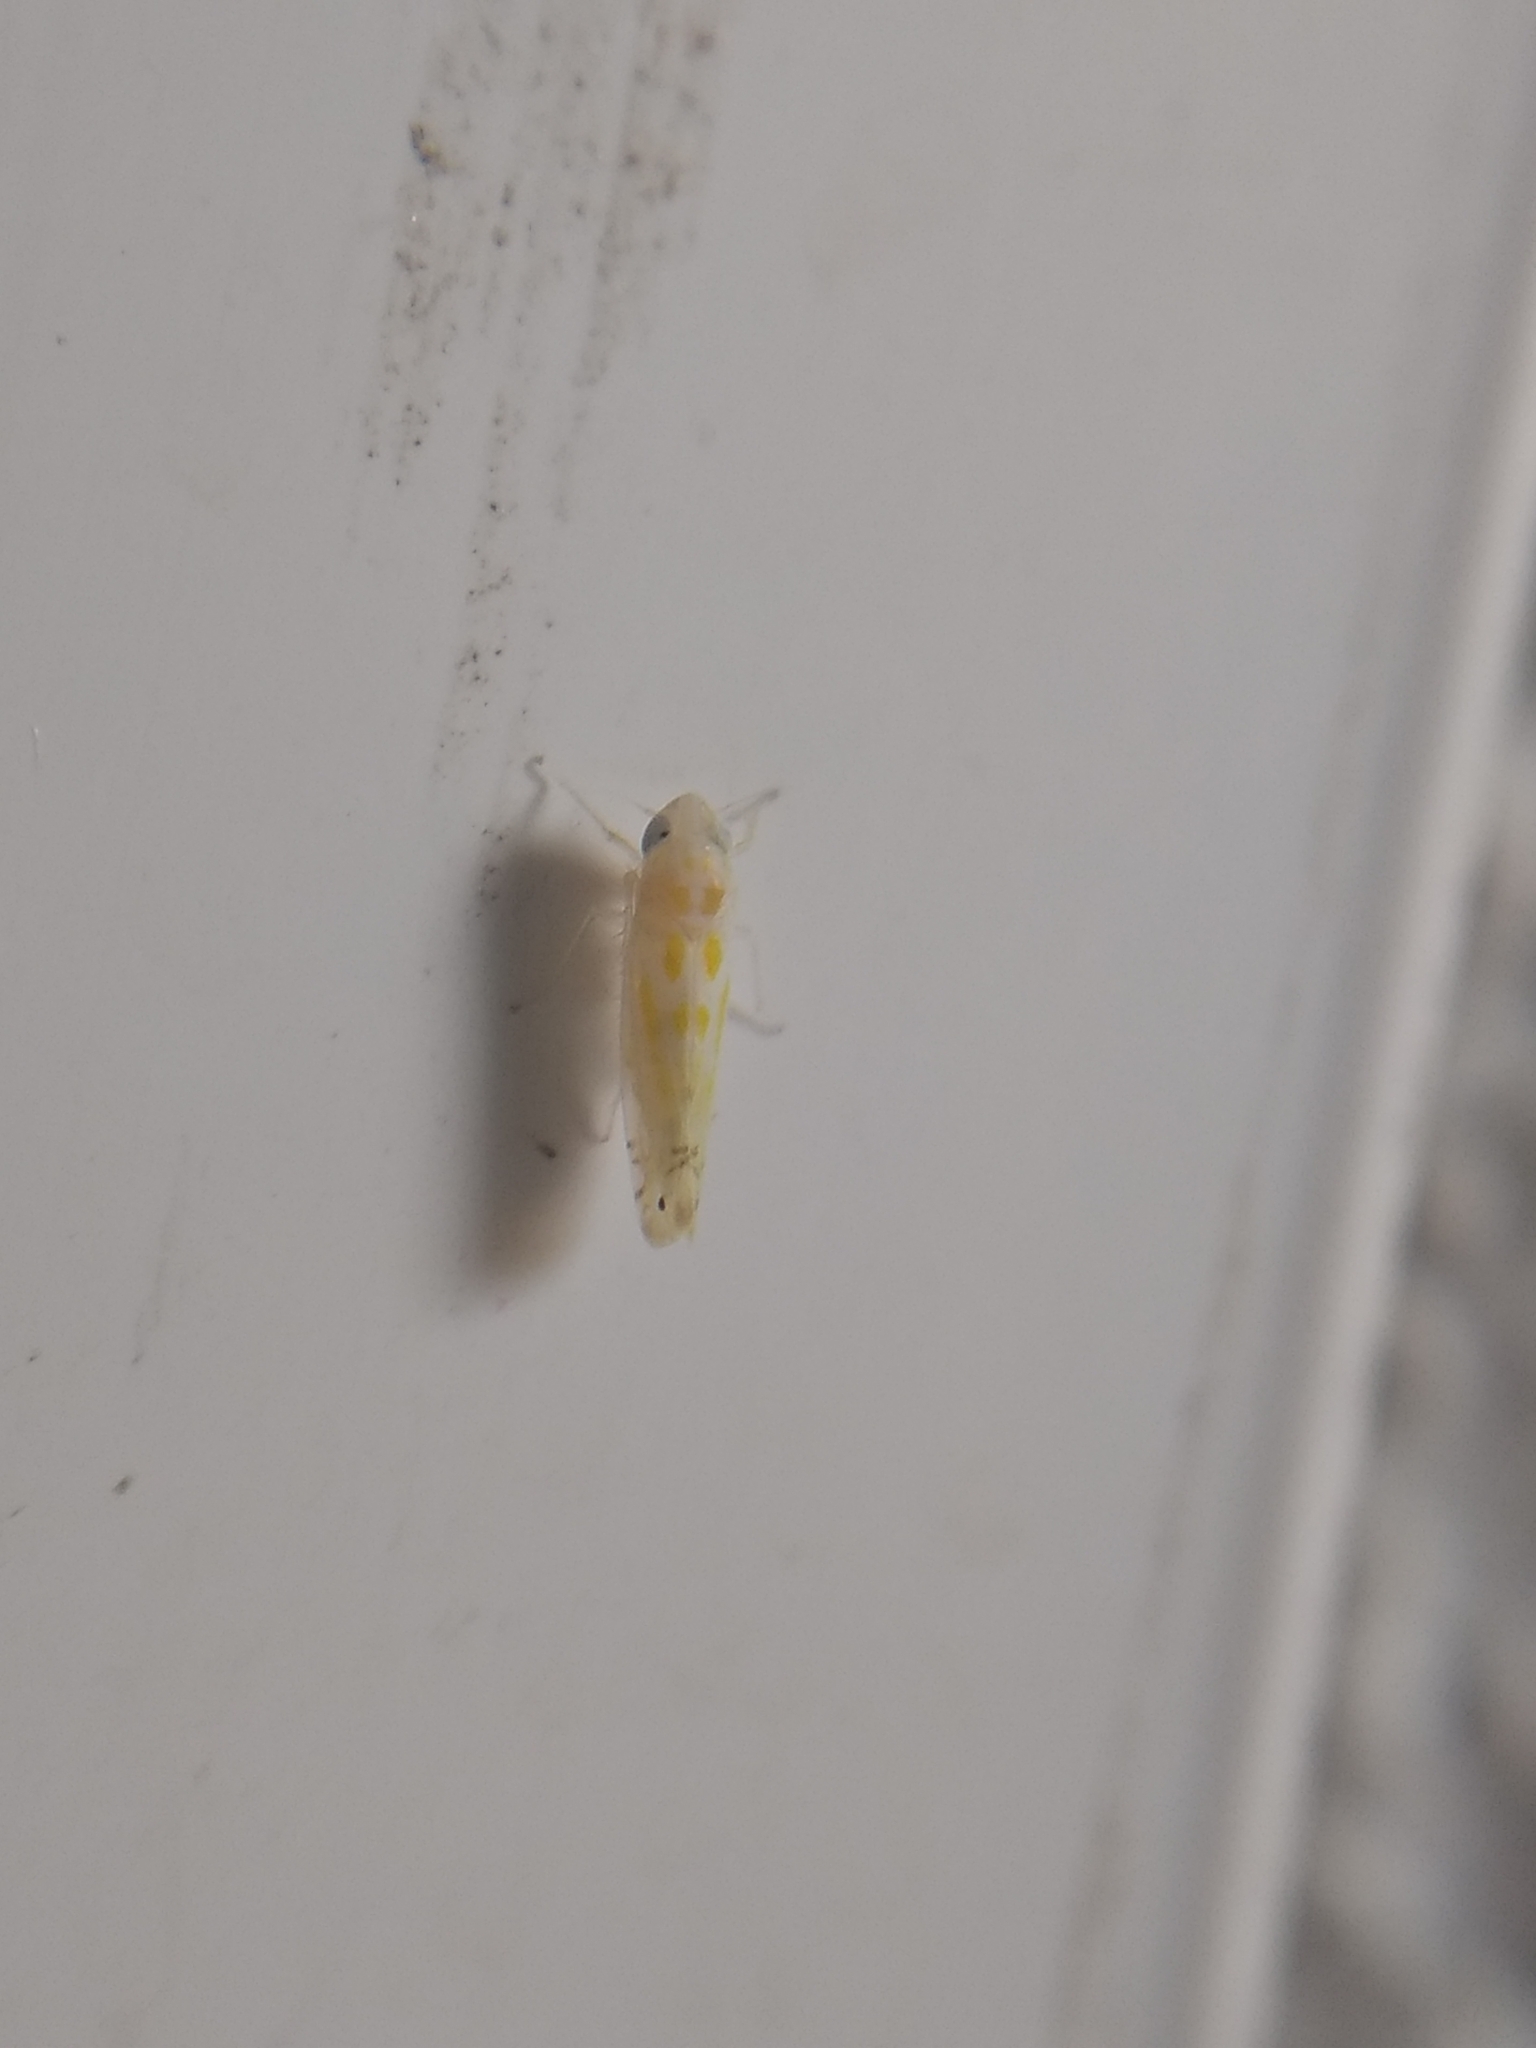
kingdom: Animalia
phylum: Arthropoda
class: Insecta
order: Hemiptera
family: Cicadellidae
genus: Alconeura
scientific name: Alconeura quadrimaculata
